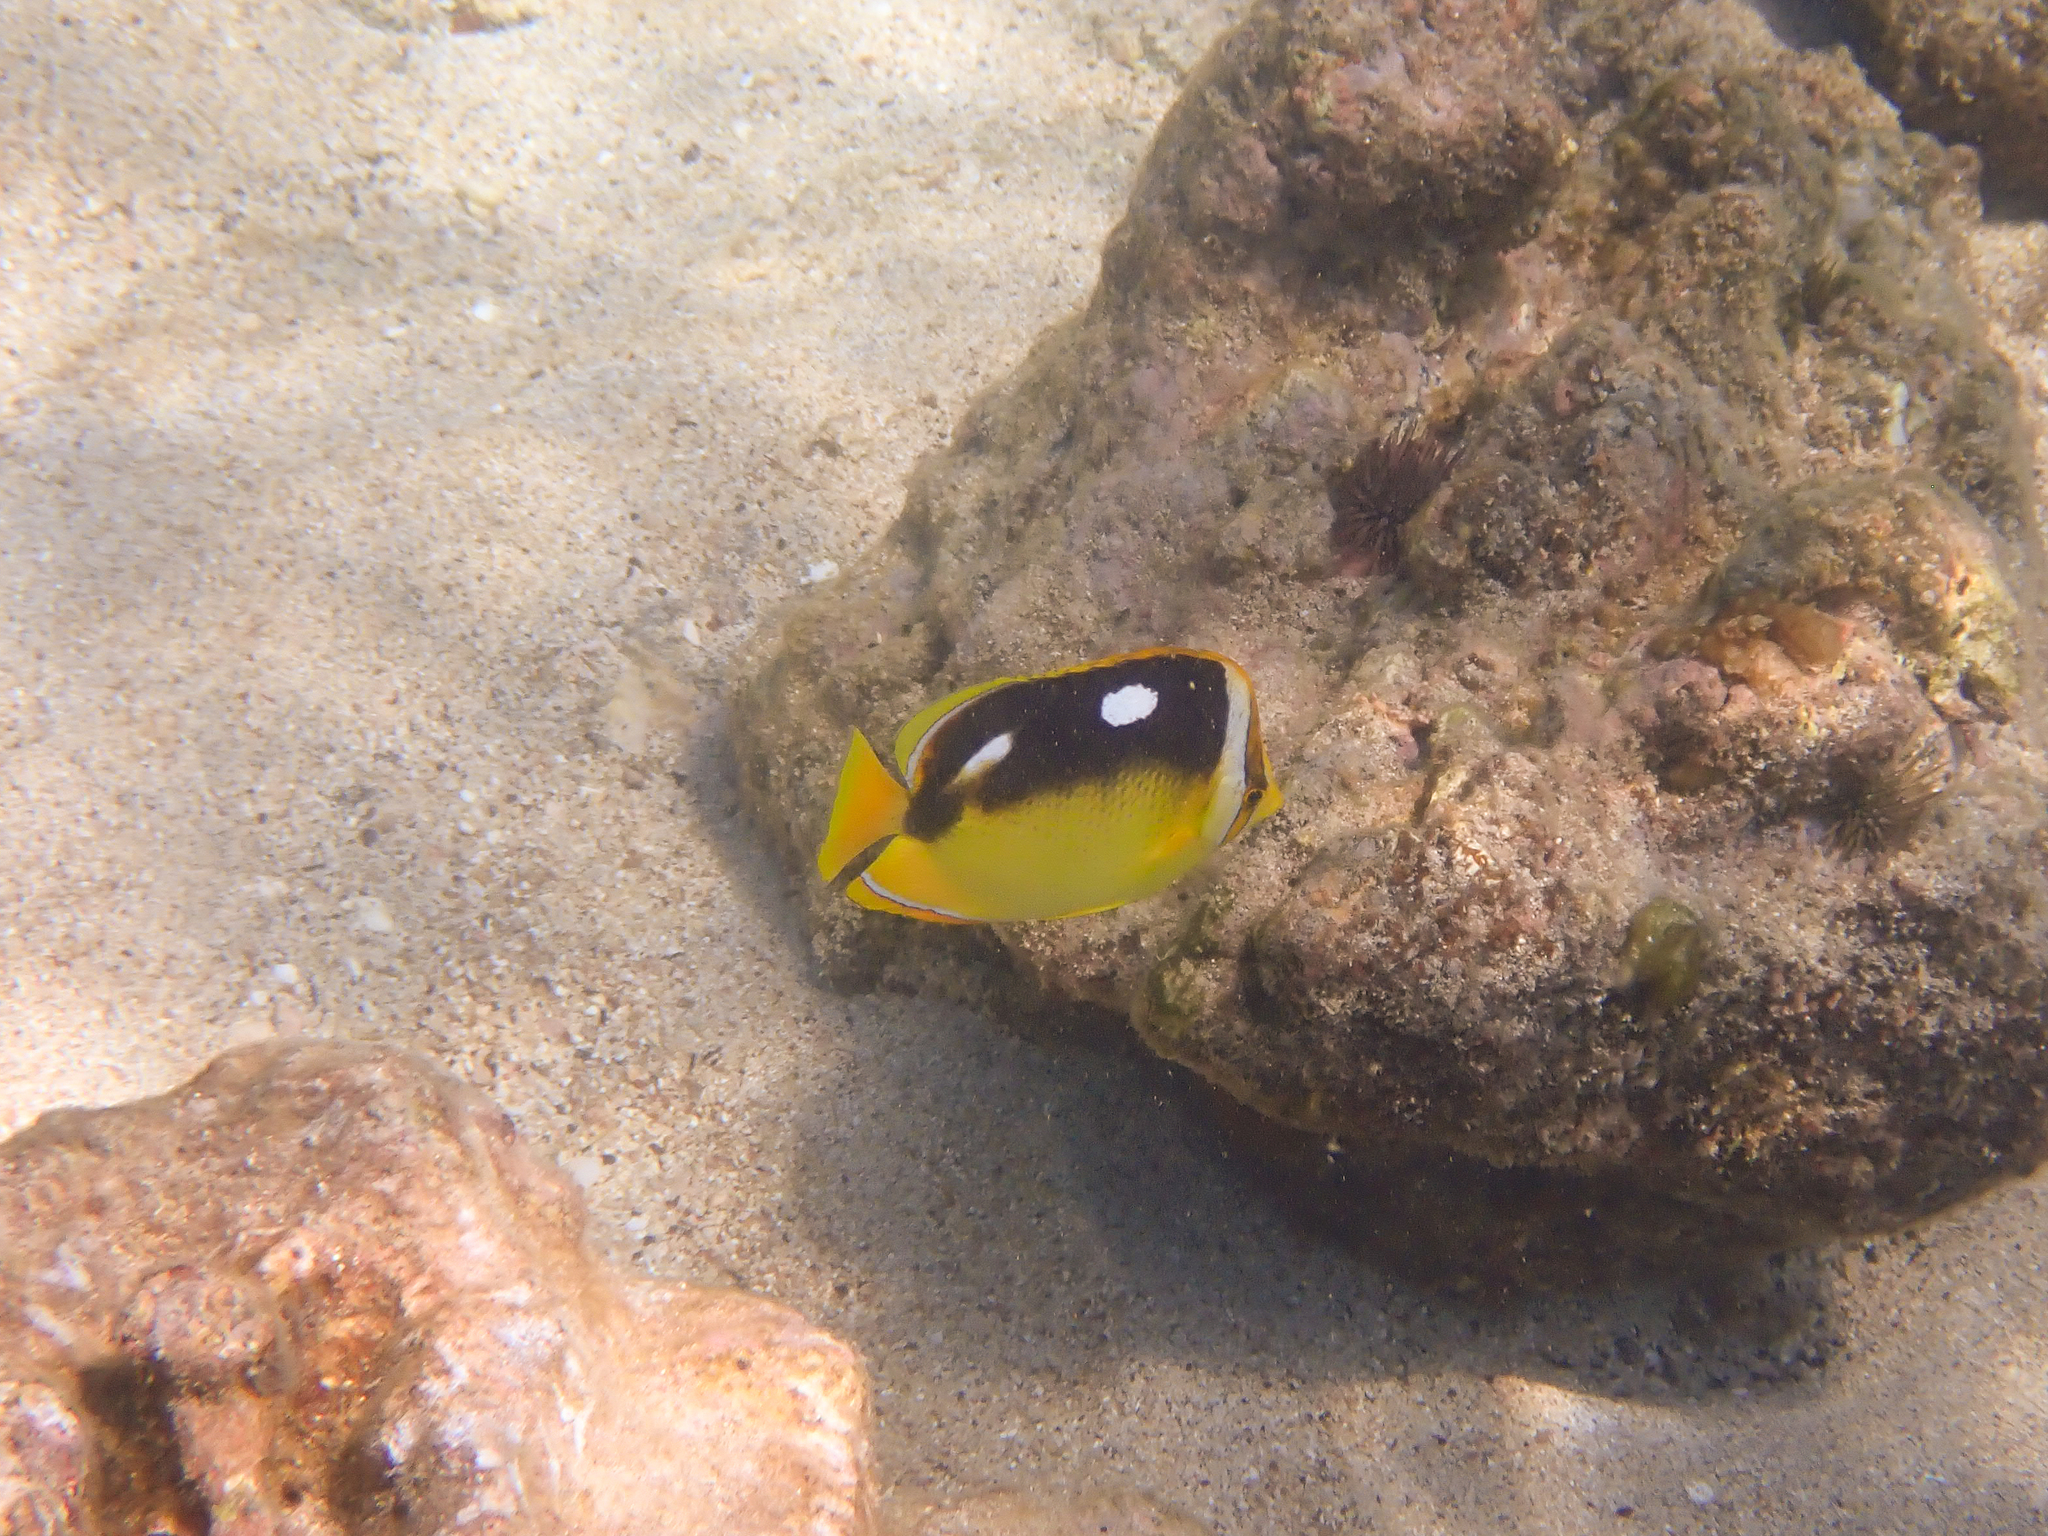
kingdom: Animalia
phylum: Chordata
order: Perciformes
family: Chaetodontidae
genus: Chaetodon
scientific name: Chaetodon quadrimaculatus
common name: Fourspot butterflyfish
